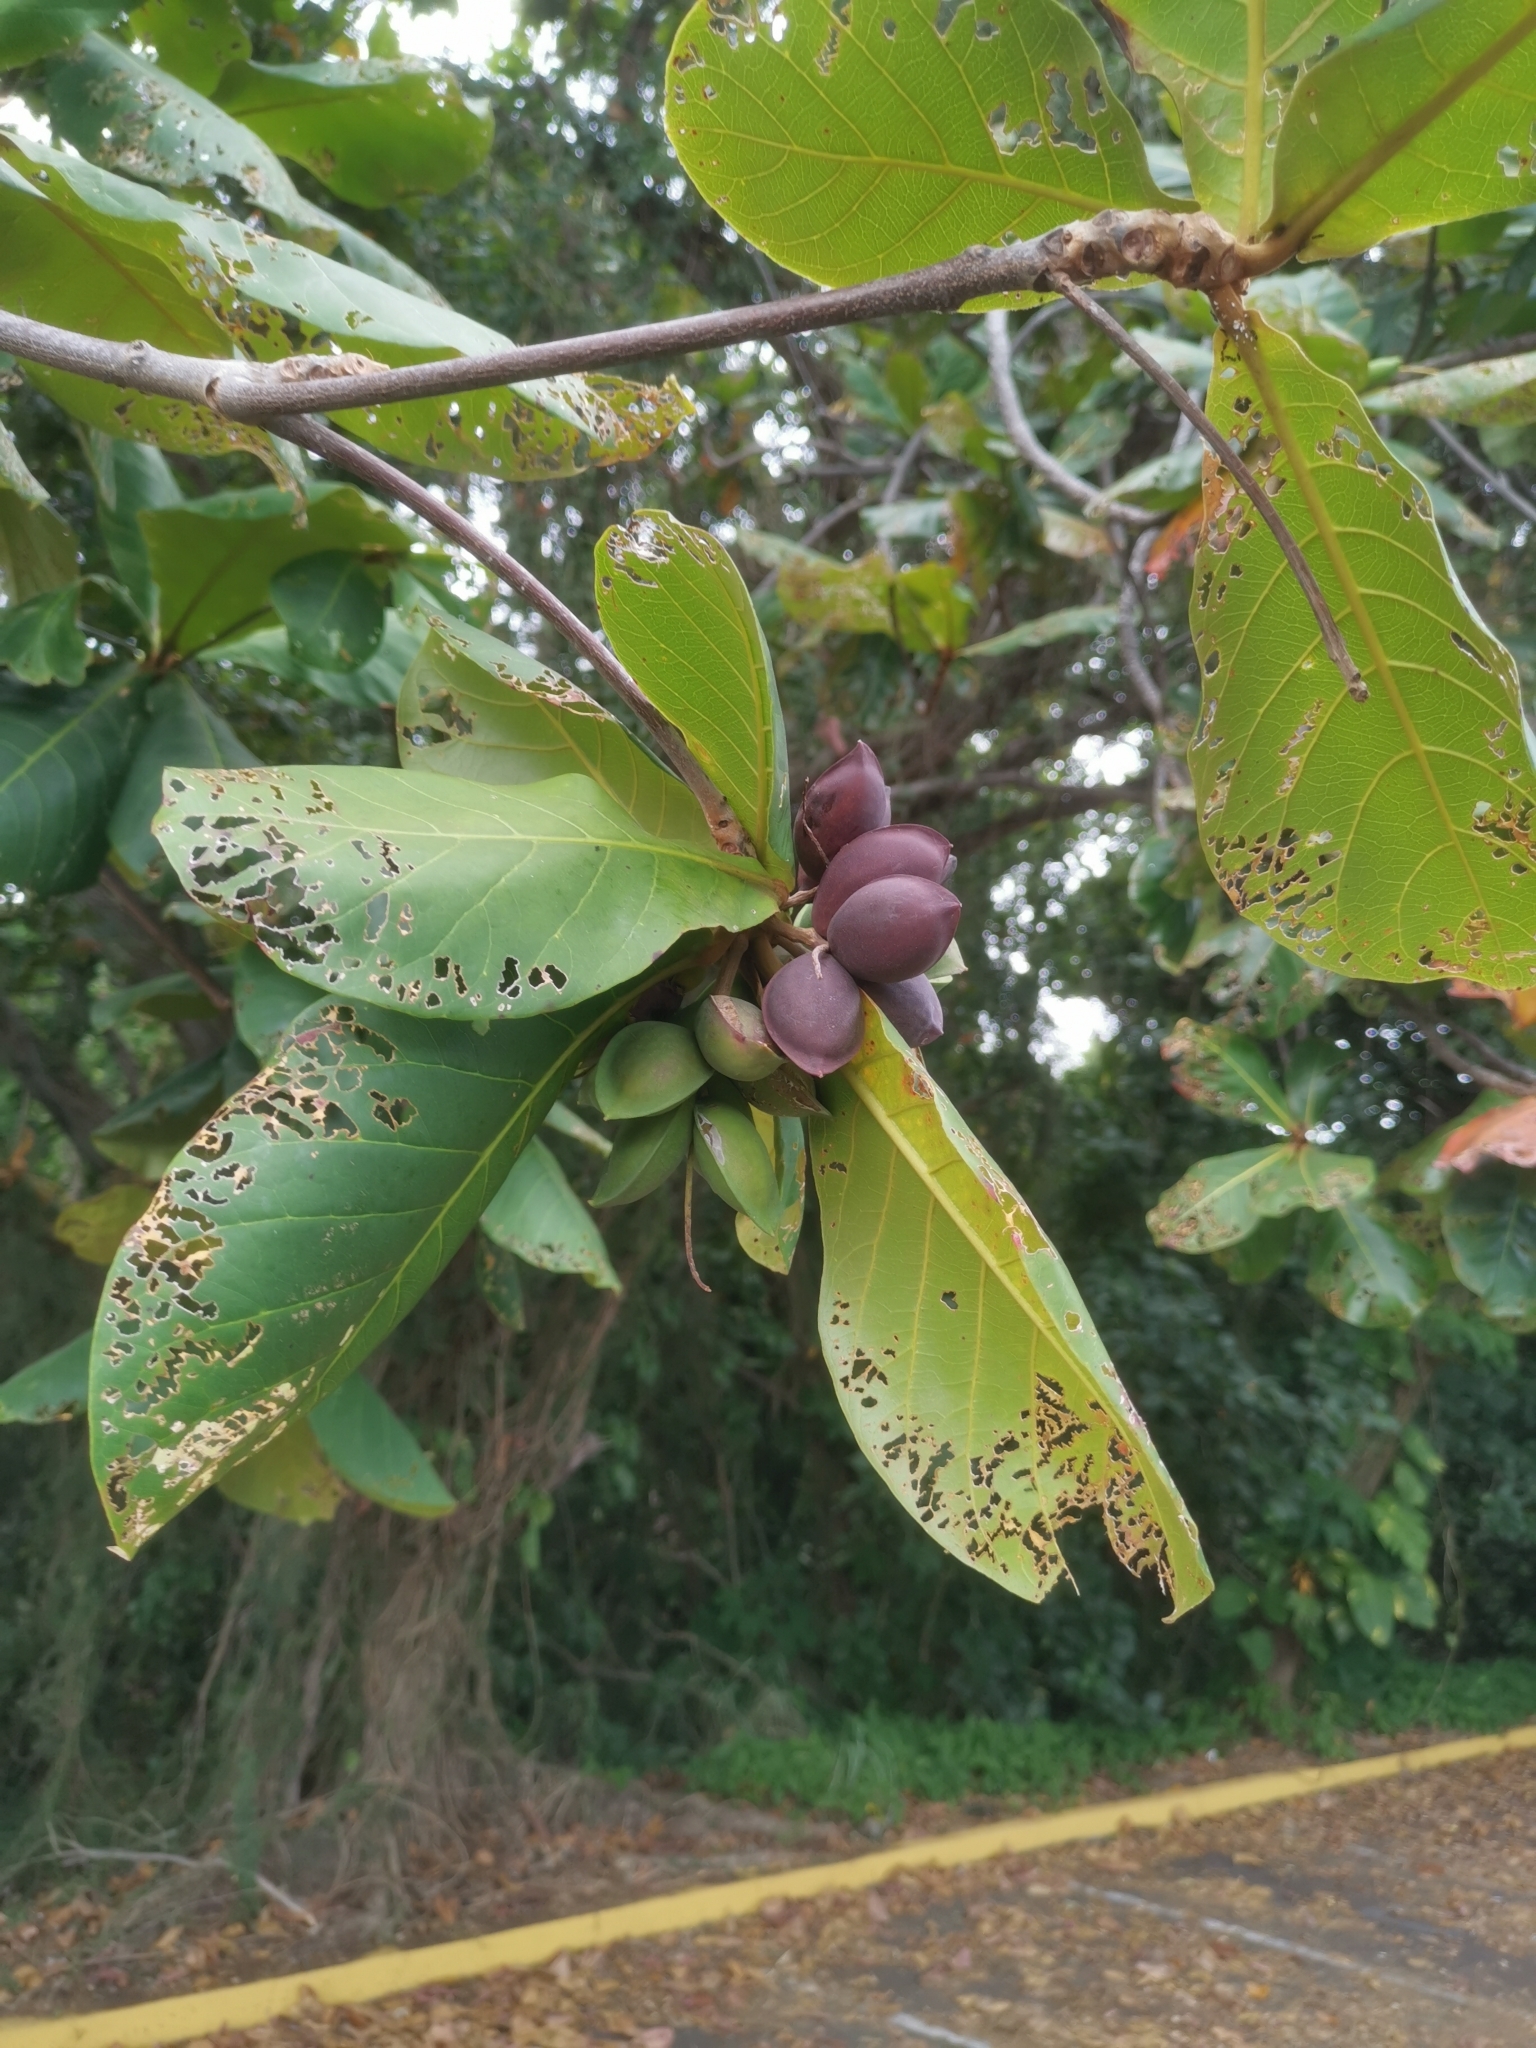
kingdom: Plantae
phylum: Tracheophyta
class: Magnoliopsida
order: Myrtales
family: Combretaceae
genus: Terminalia
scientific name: Terminalia catappa
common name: Tropical almond
